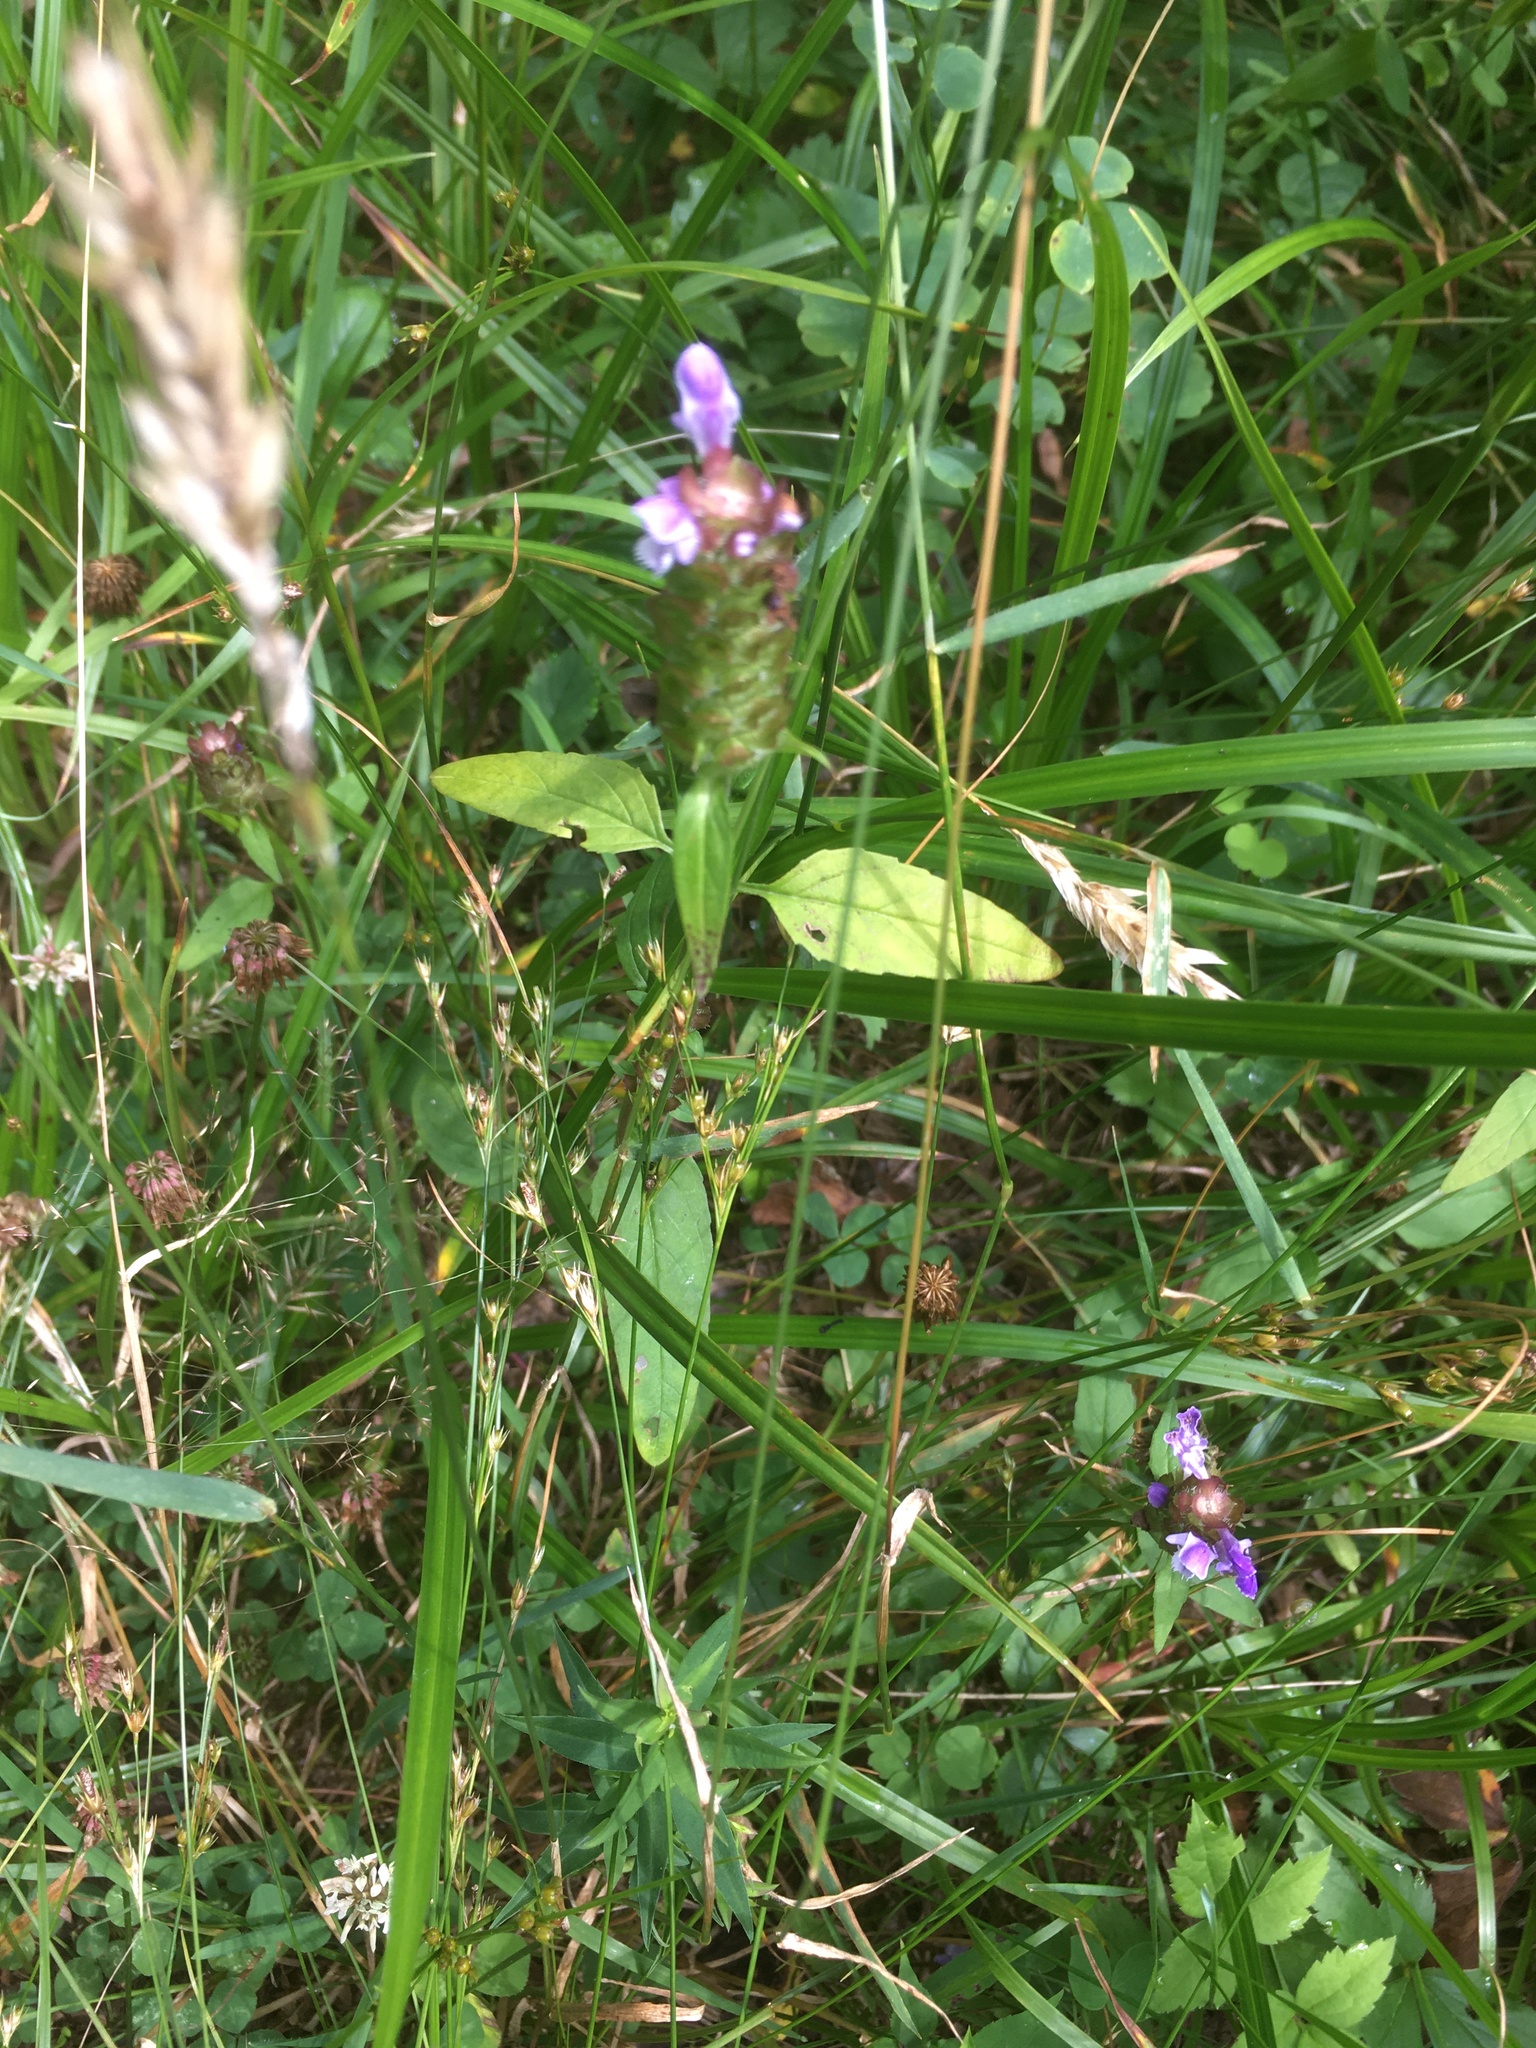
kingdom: Plantae
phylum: Tracheophyta
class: Magnoliopsida
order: Lamiales
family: Lamiaceae
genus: Prunella
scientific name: Prunella vulgaris
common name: Heal-all
